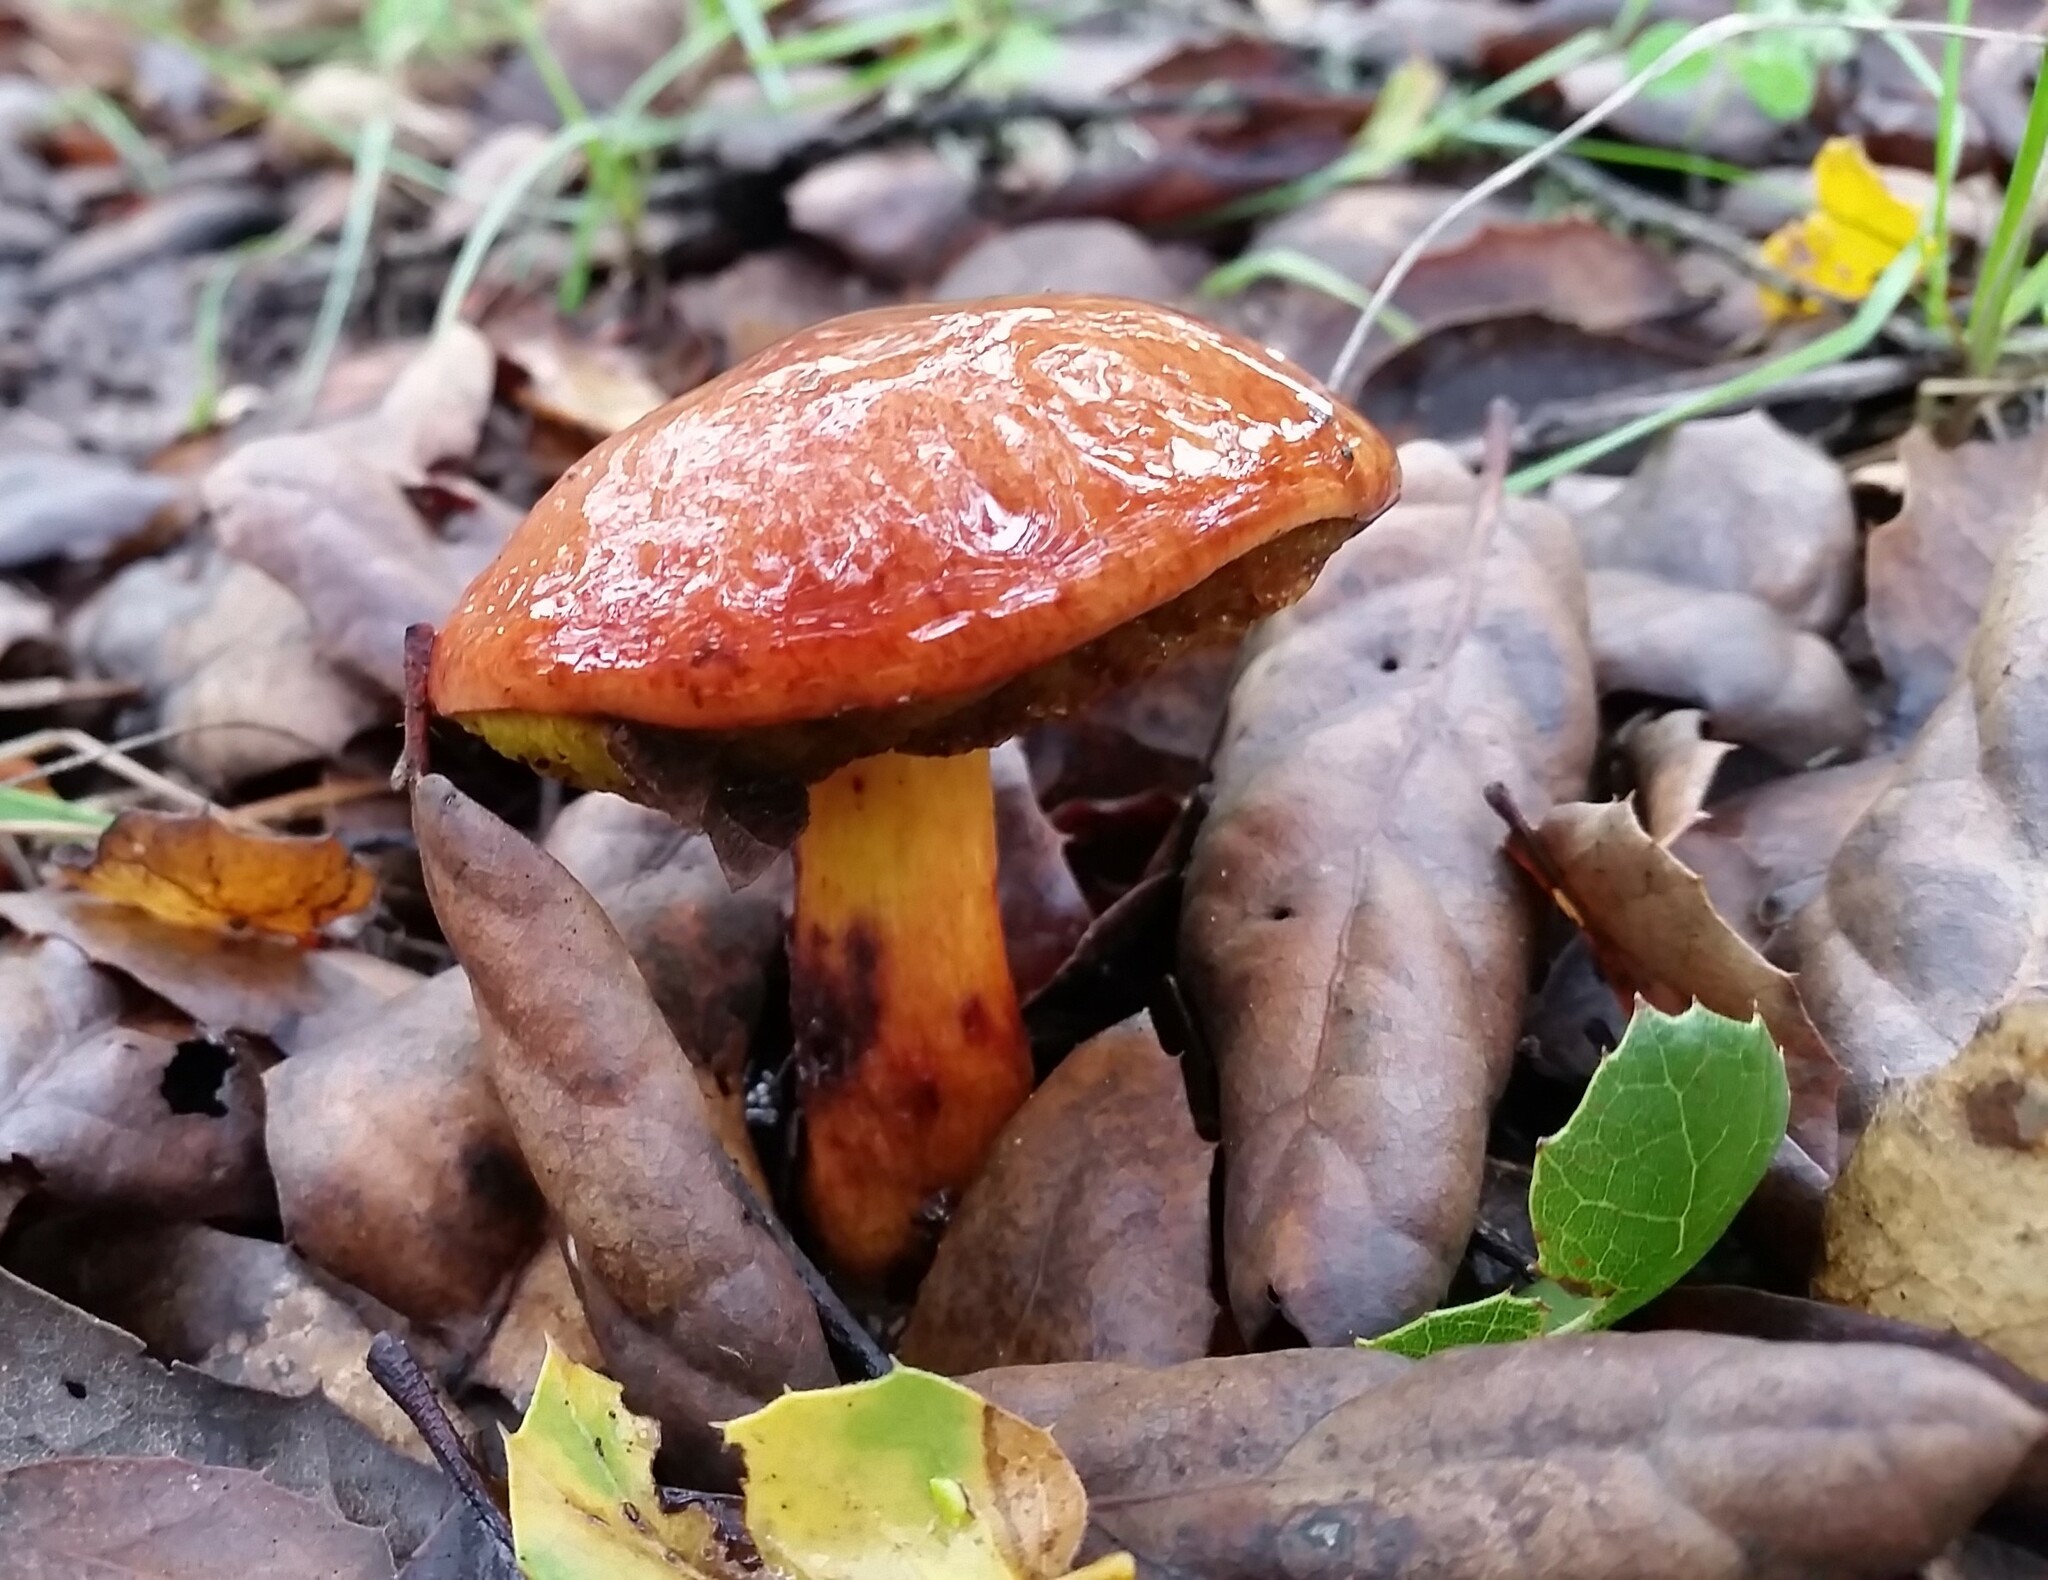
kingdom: Fungi
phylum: Basidiomycota
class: Agaricomycetes
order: Boletales
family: Suillaceae
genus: Suillus
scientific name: Suillus pungens
